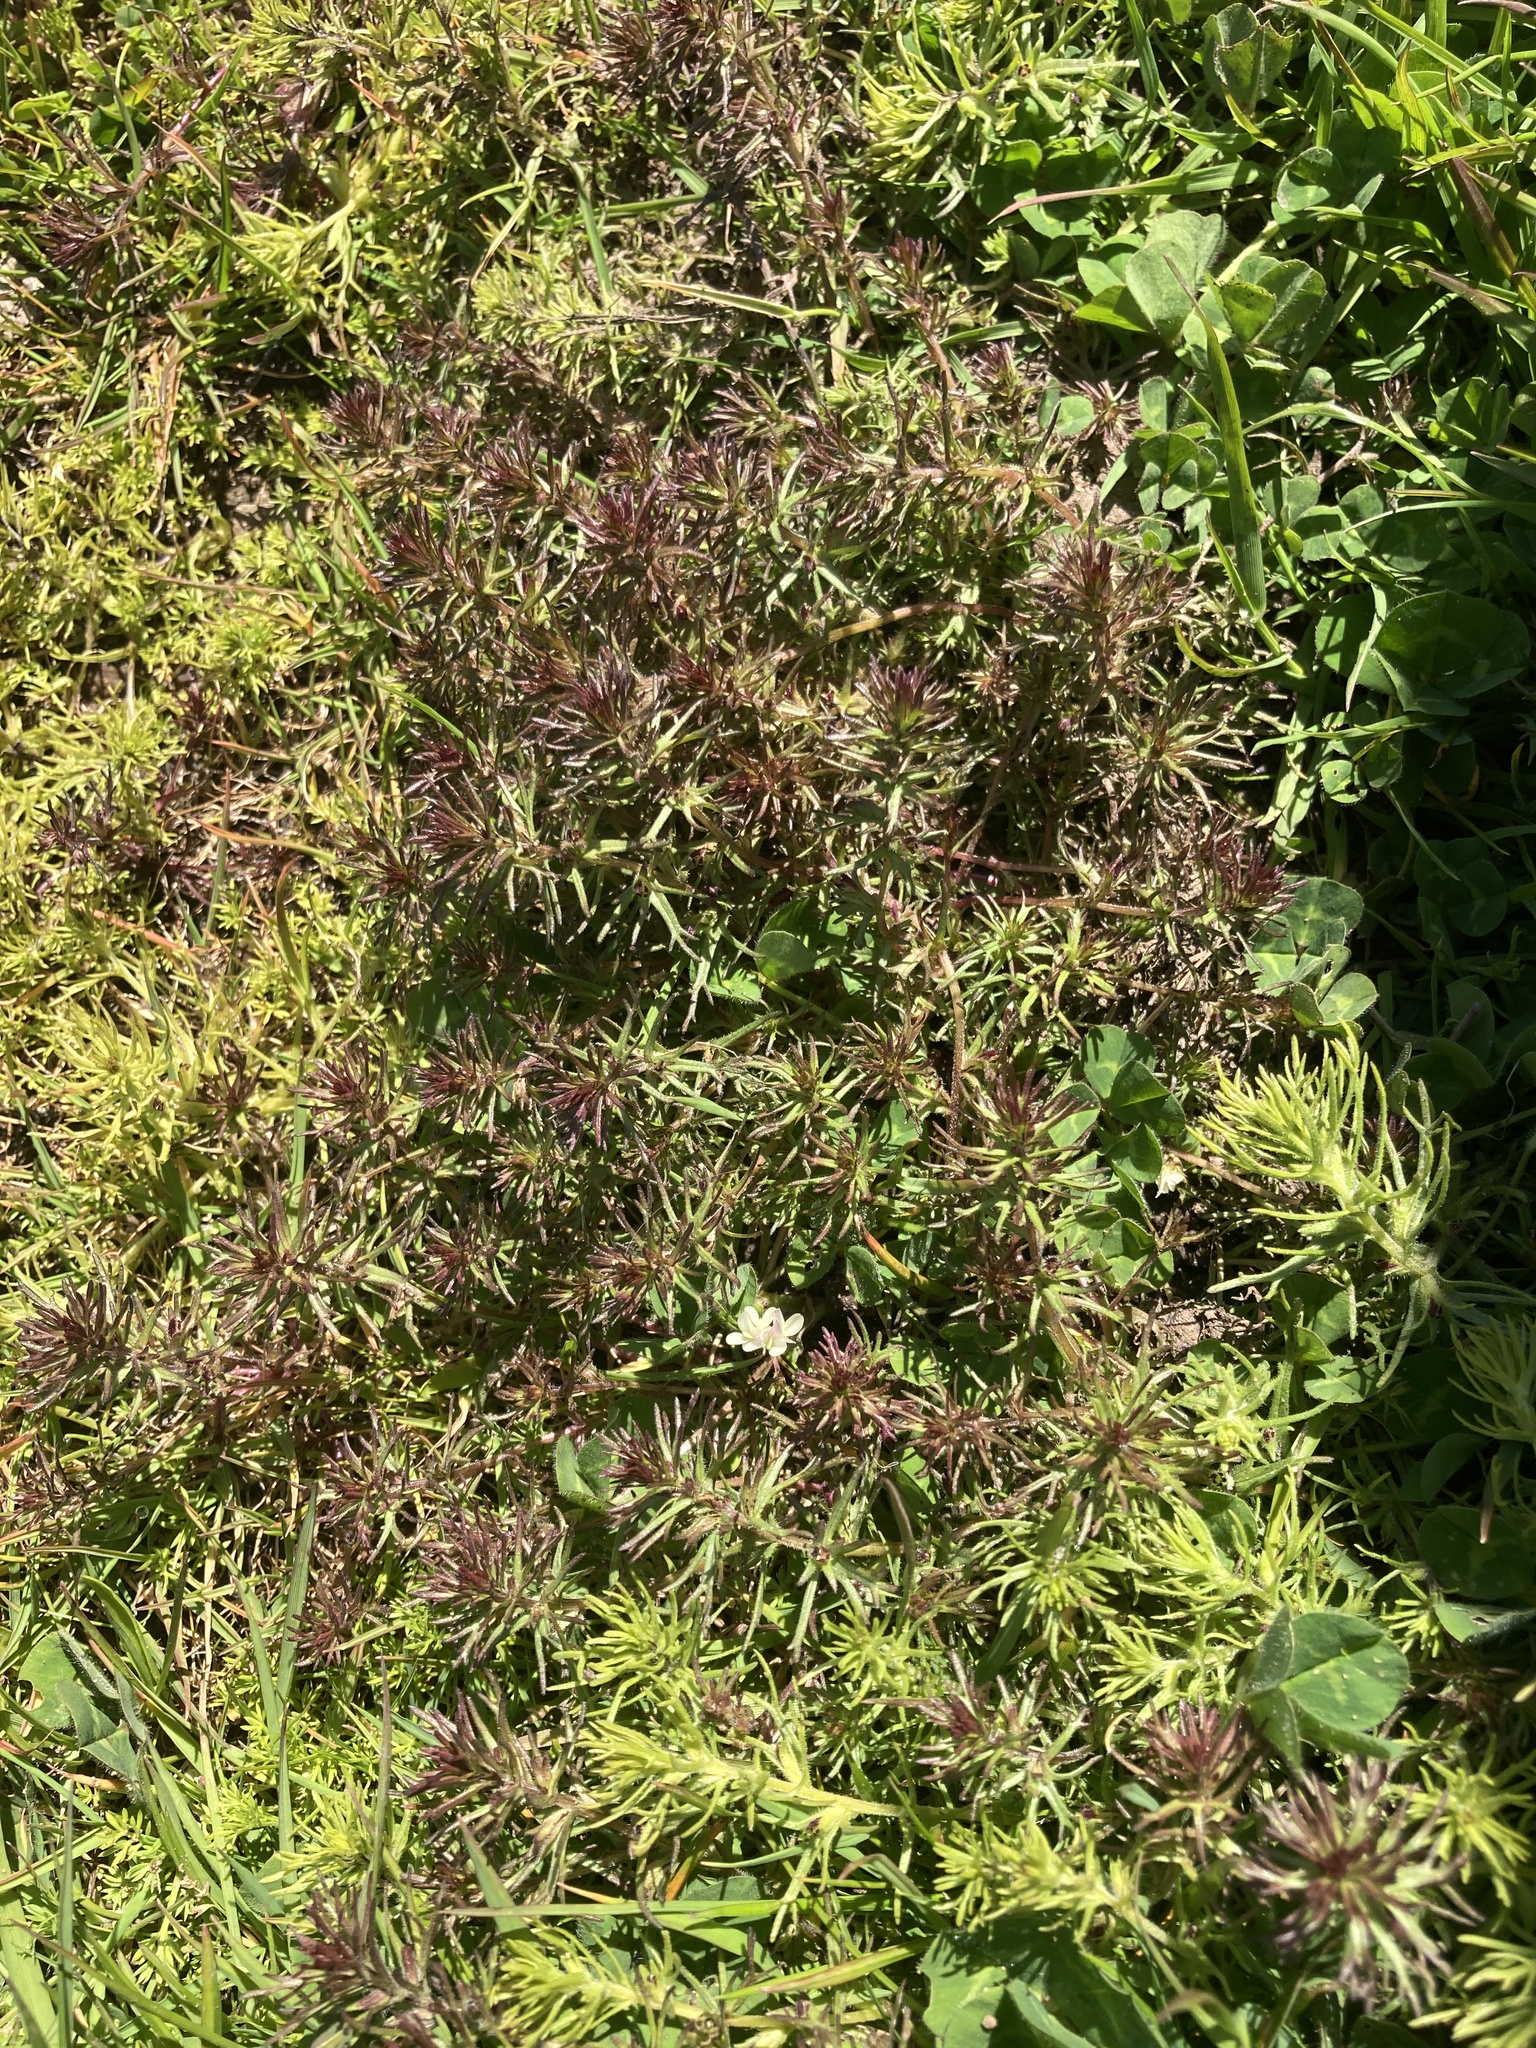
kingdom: Plantae
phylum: Tracheophyta
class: Magnoliopsida
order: Lamiales
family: Orobanchaceae
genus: Triphysaria
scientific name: Triphysaria pusilla
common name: Dwarf false owl-clover
